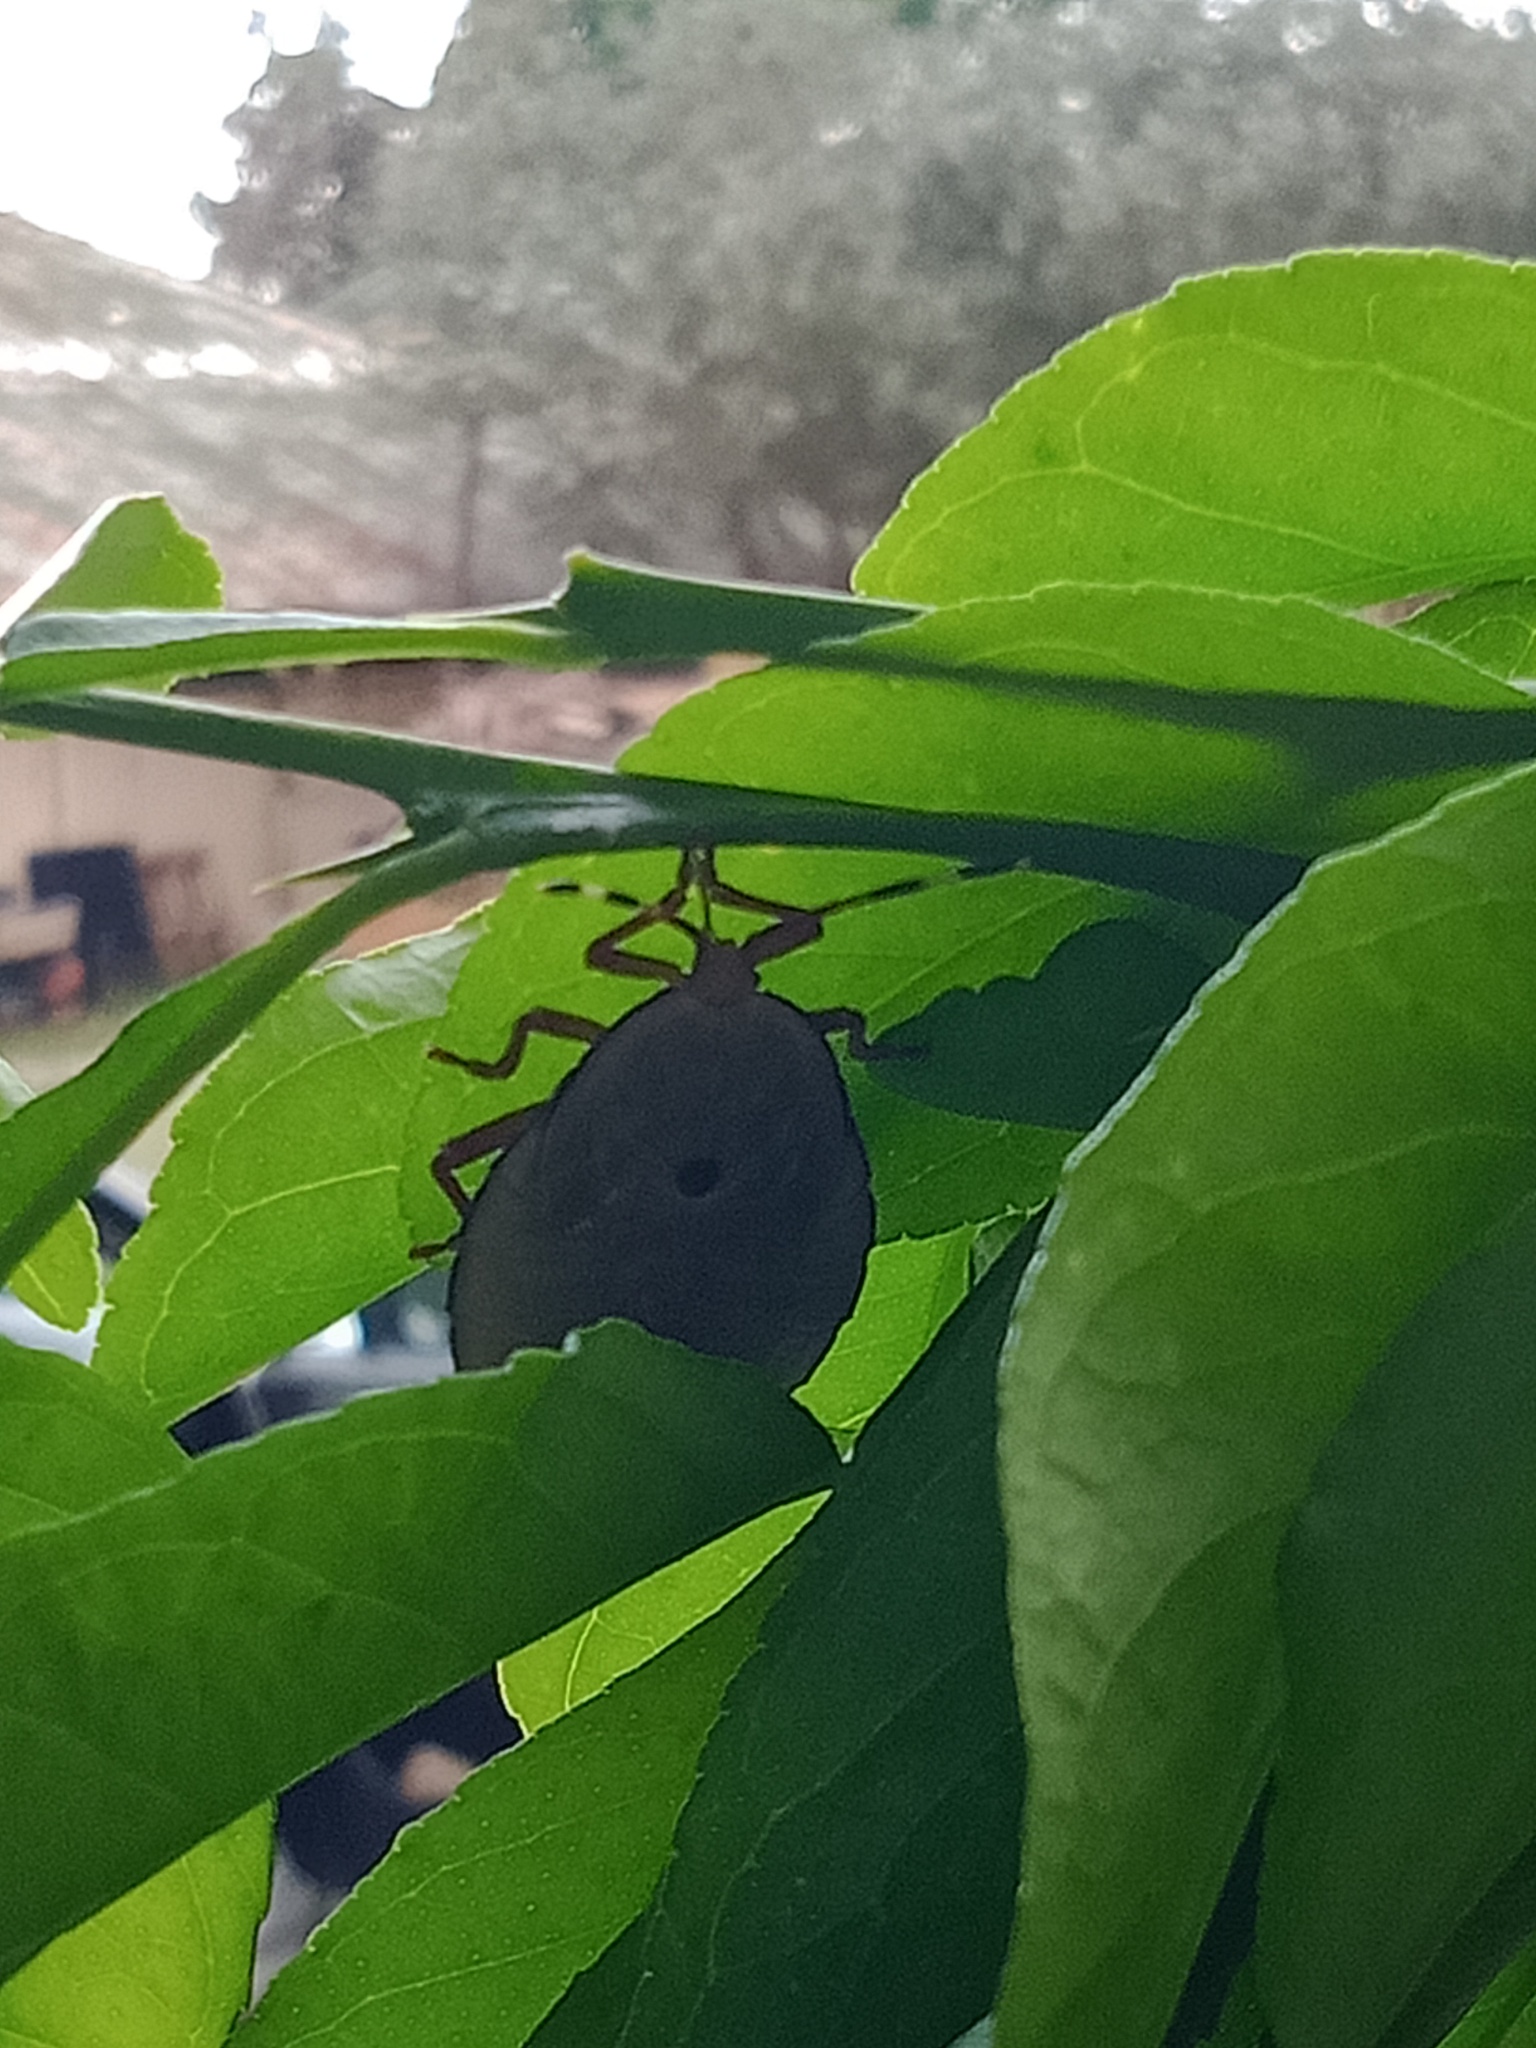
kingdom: Animalia
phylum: Arthropoda
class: Insecta
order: Hemiptera
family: Tessaratomidae
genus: Musgraveia
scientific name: Musgraveia sulciventris
